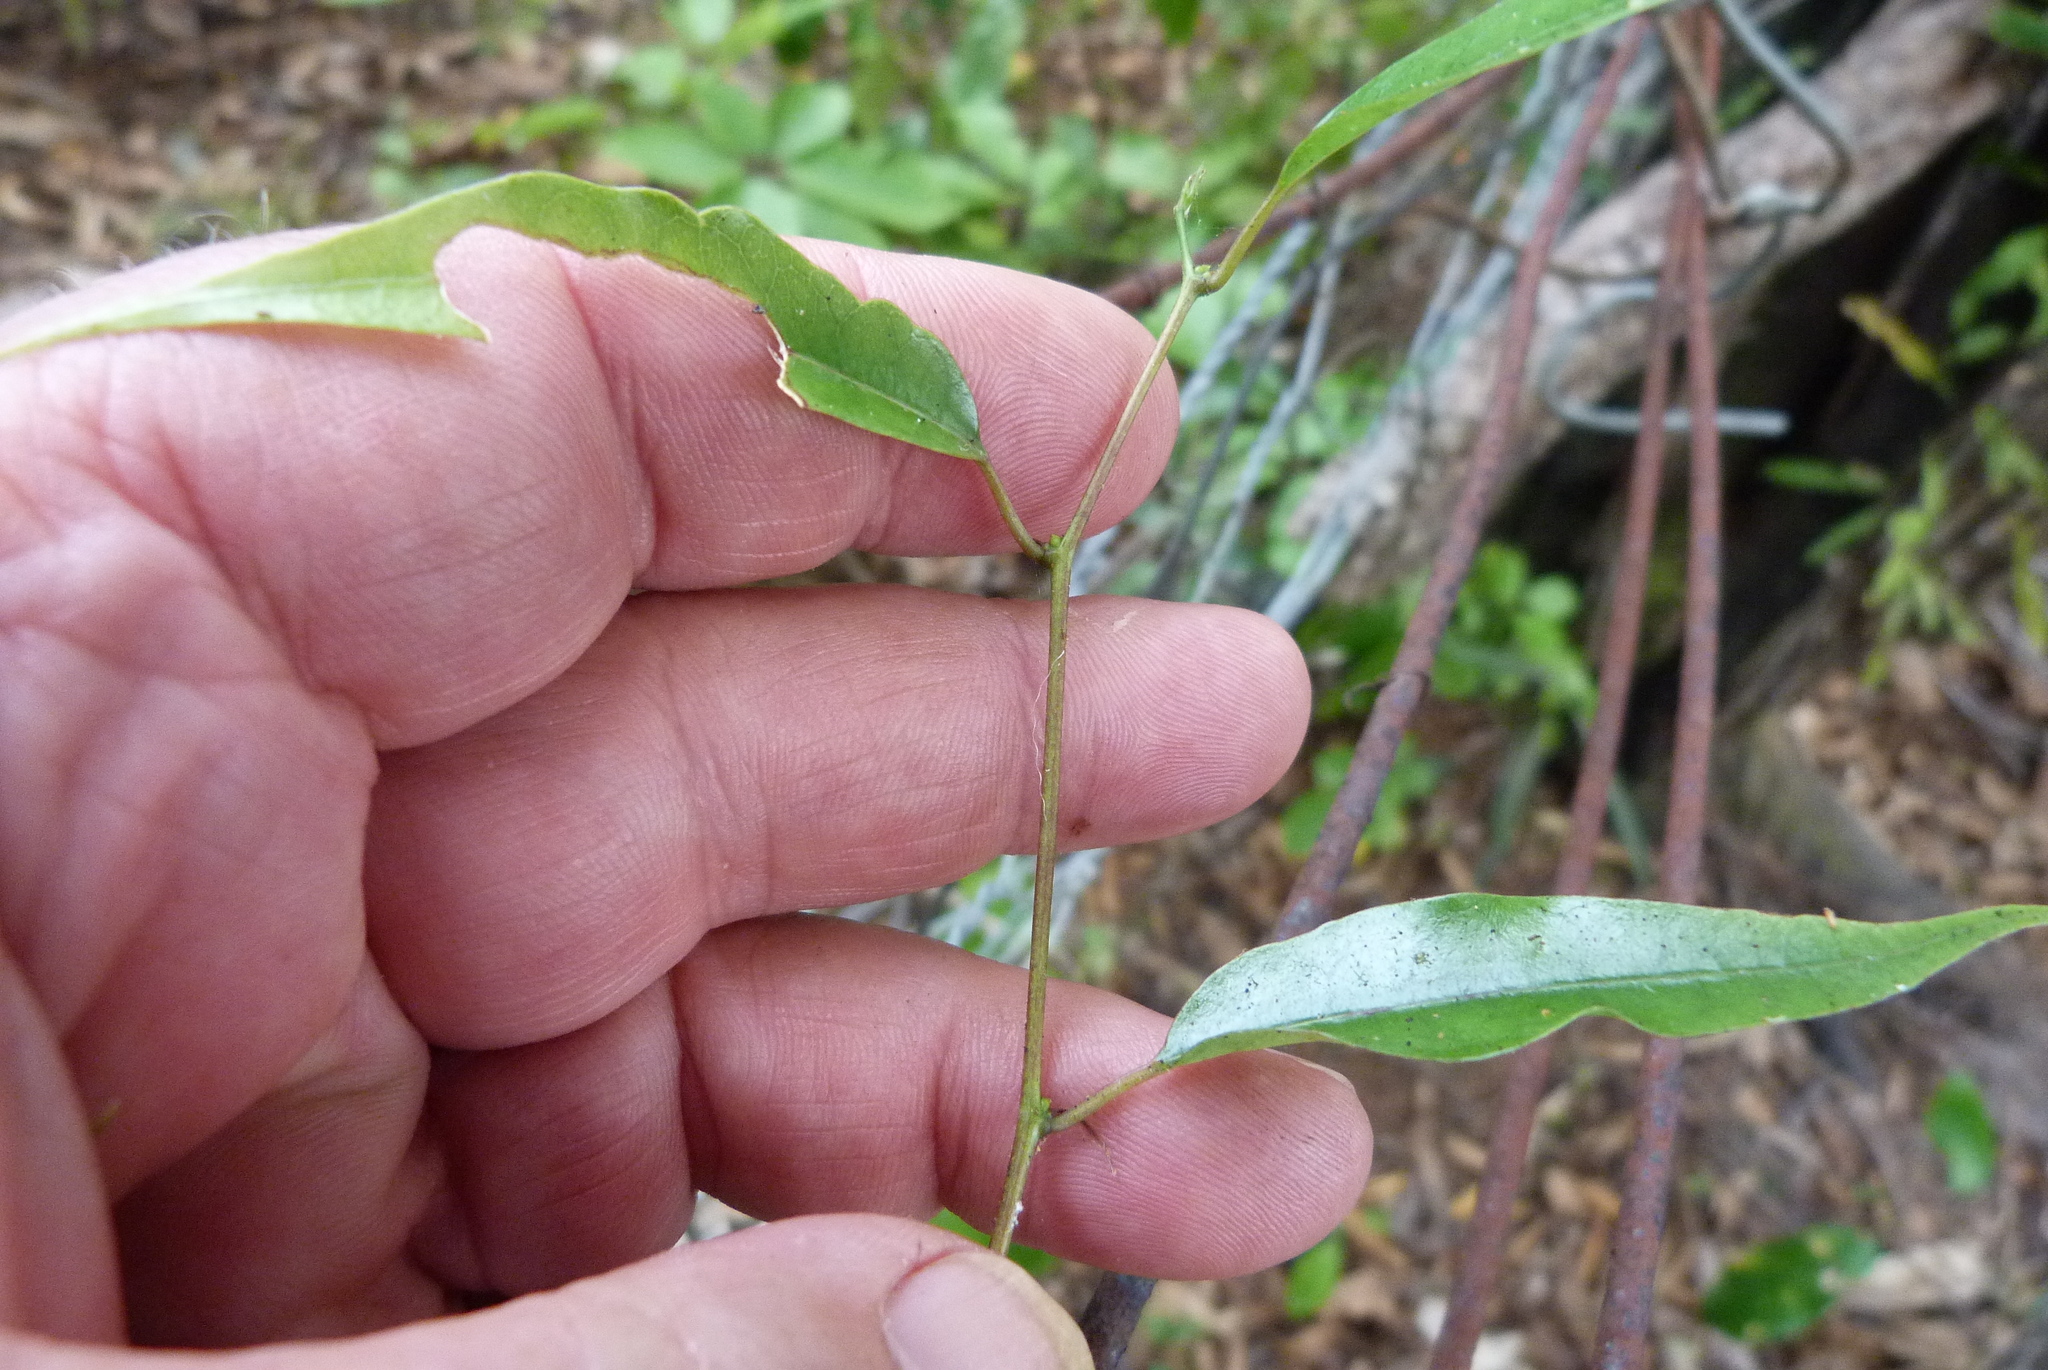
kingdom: Plantae
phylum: Tracheophyta
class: Magnoliopsida
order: Malpighiales
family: Passifloraceae
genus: Passiflora
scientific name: Passiflora tetrandra
